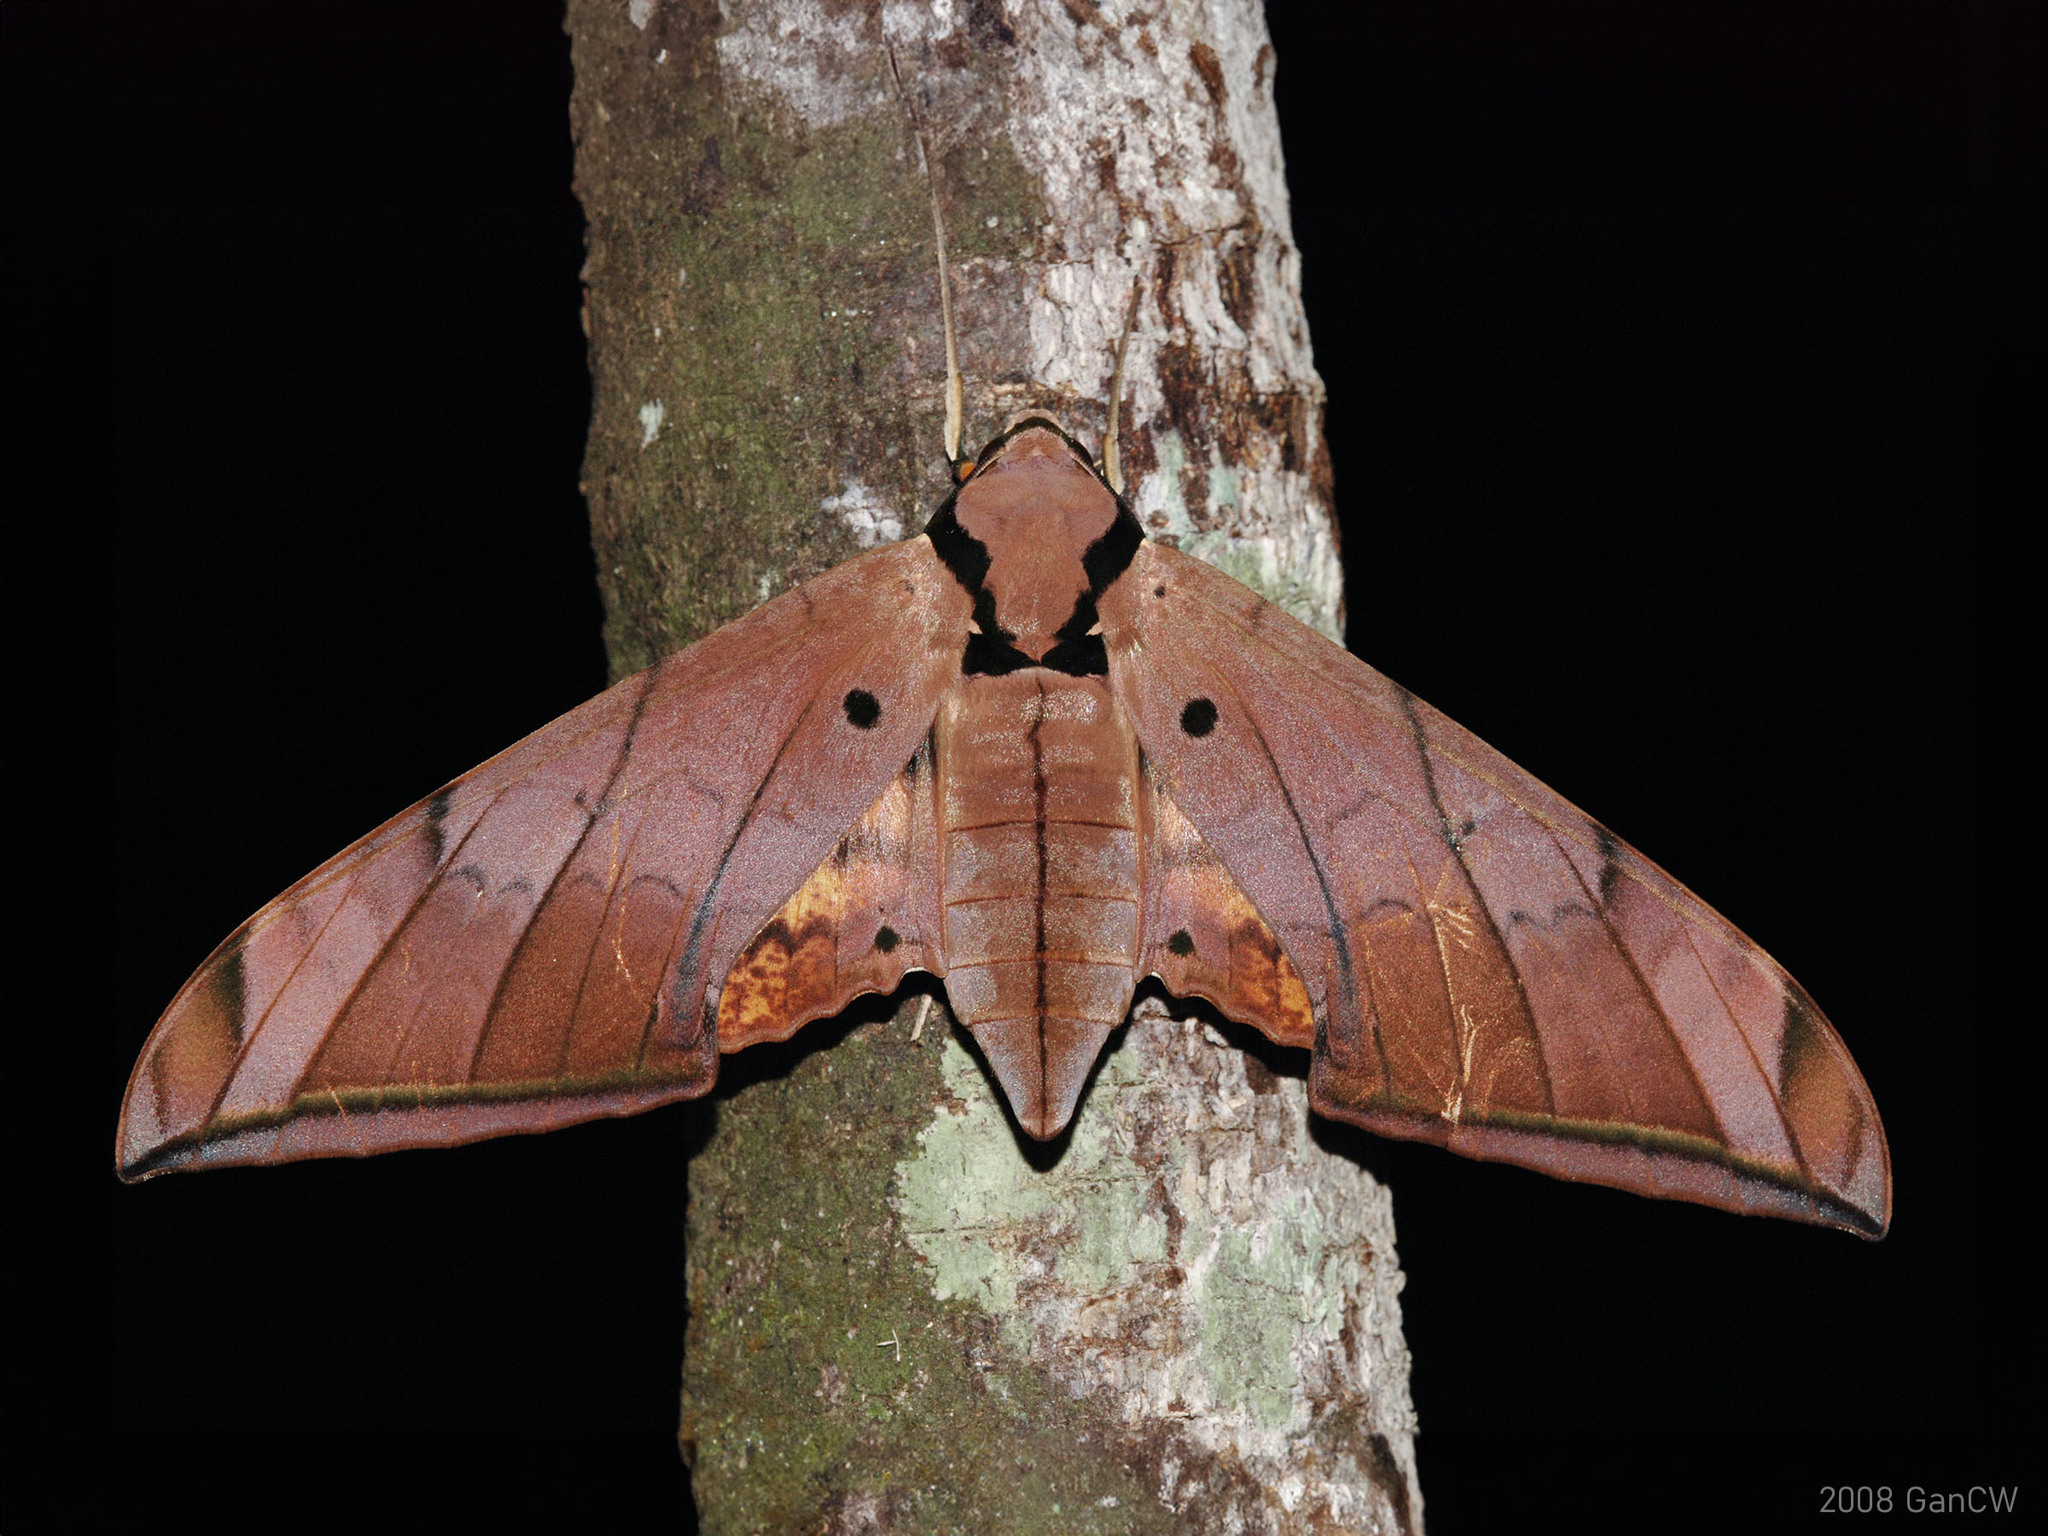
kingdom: Animalia
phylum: Arthropoda
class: Insecta
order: Lepidoptera
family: Sphingidae
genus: Ambulyx
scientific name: Ambulyx pryeri
